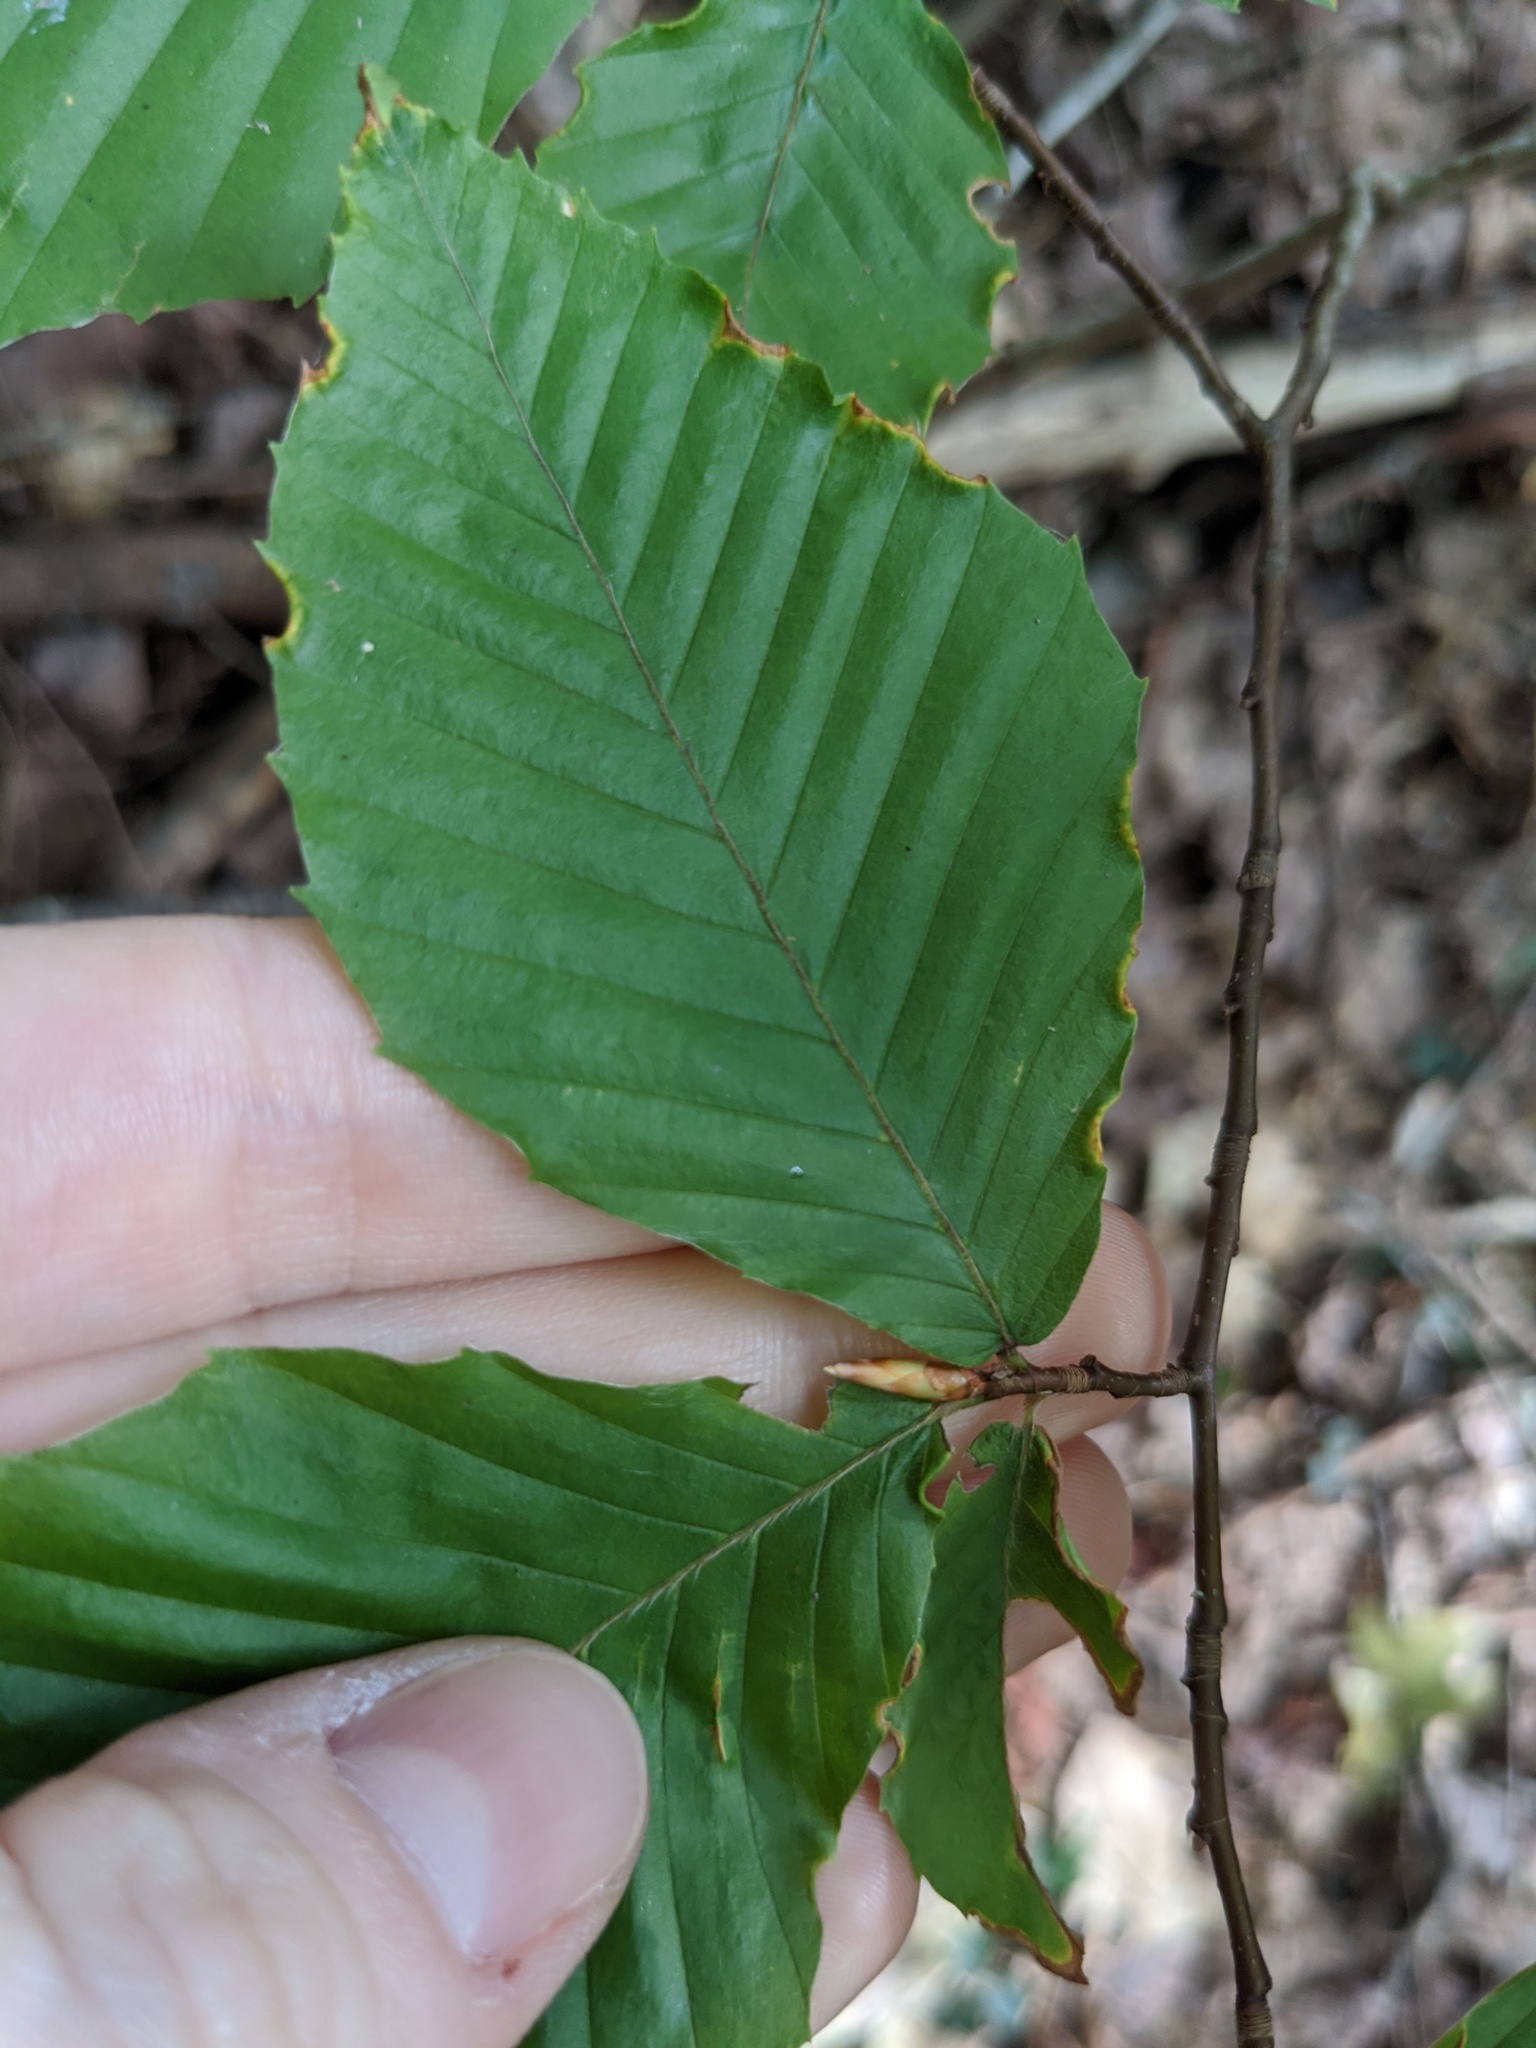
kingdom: Plantae
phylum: Tracheophyta
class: Magnoliopsida
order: Fagales
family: Fagaceae
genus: Fagus
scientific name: Fagus grandifolia
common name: American beech
